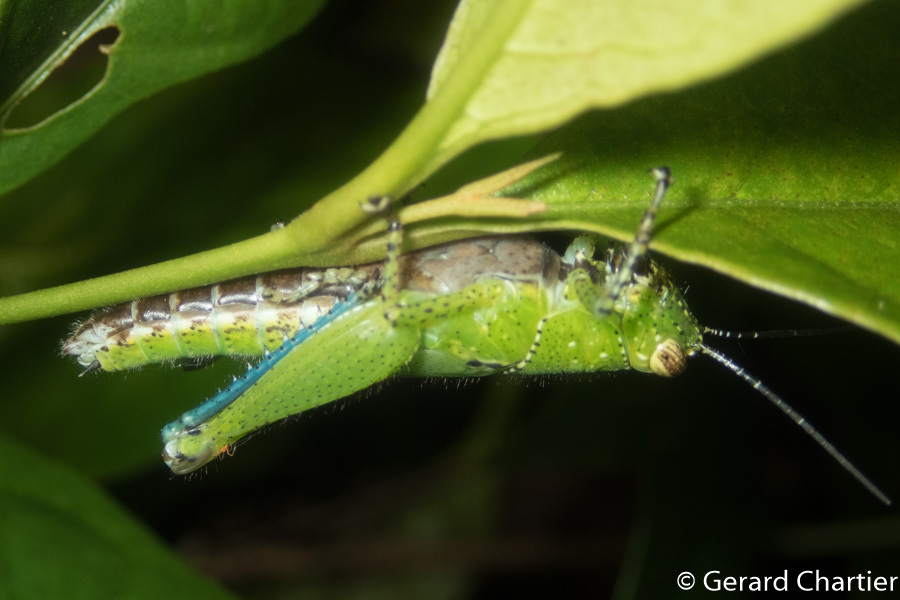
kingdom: Animalia
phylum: Arthropoda
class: Insecta
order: Orthoptera
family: Acrididae
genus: Xenocatantops
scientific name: Xenocatantops humile
